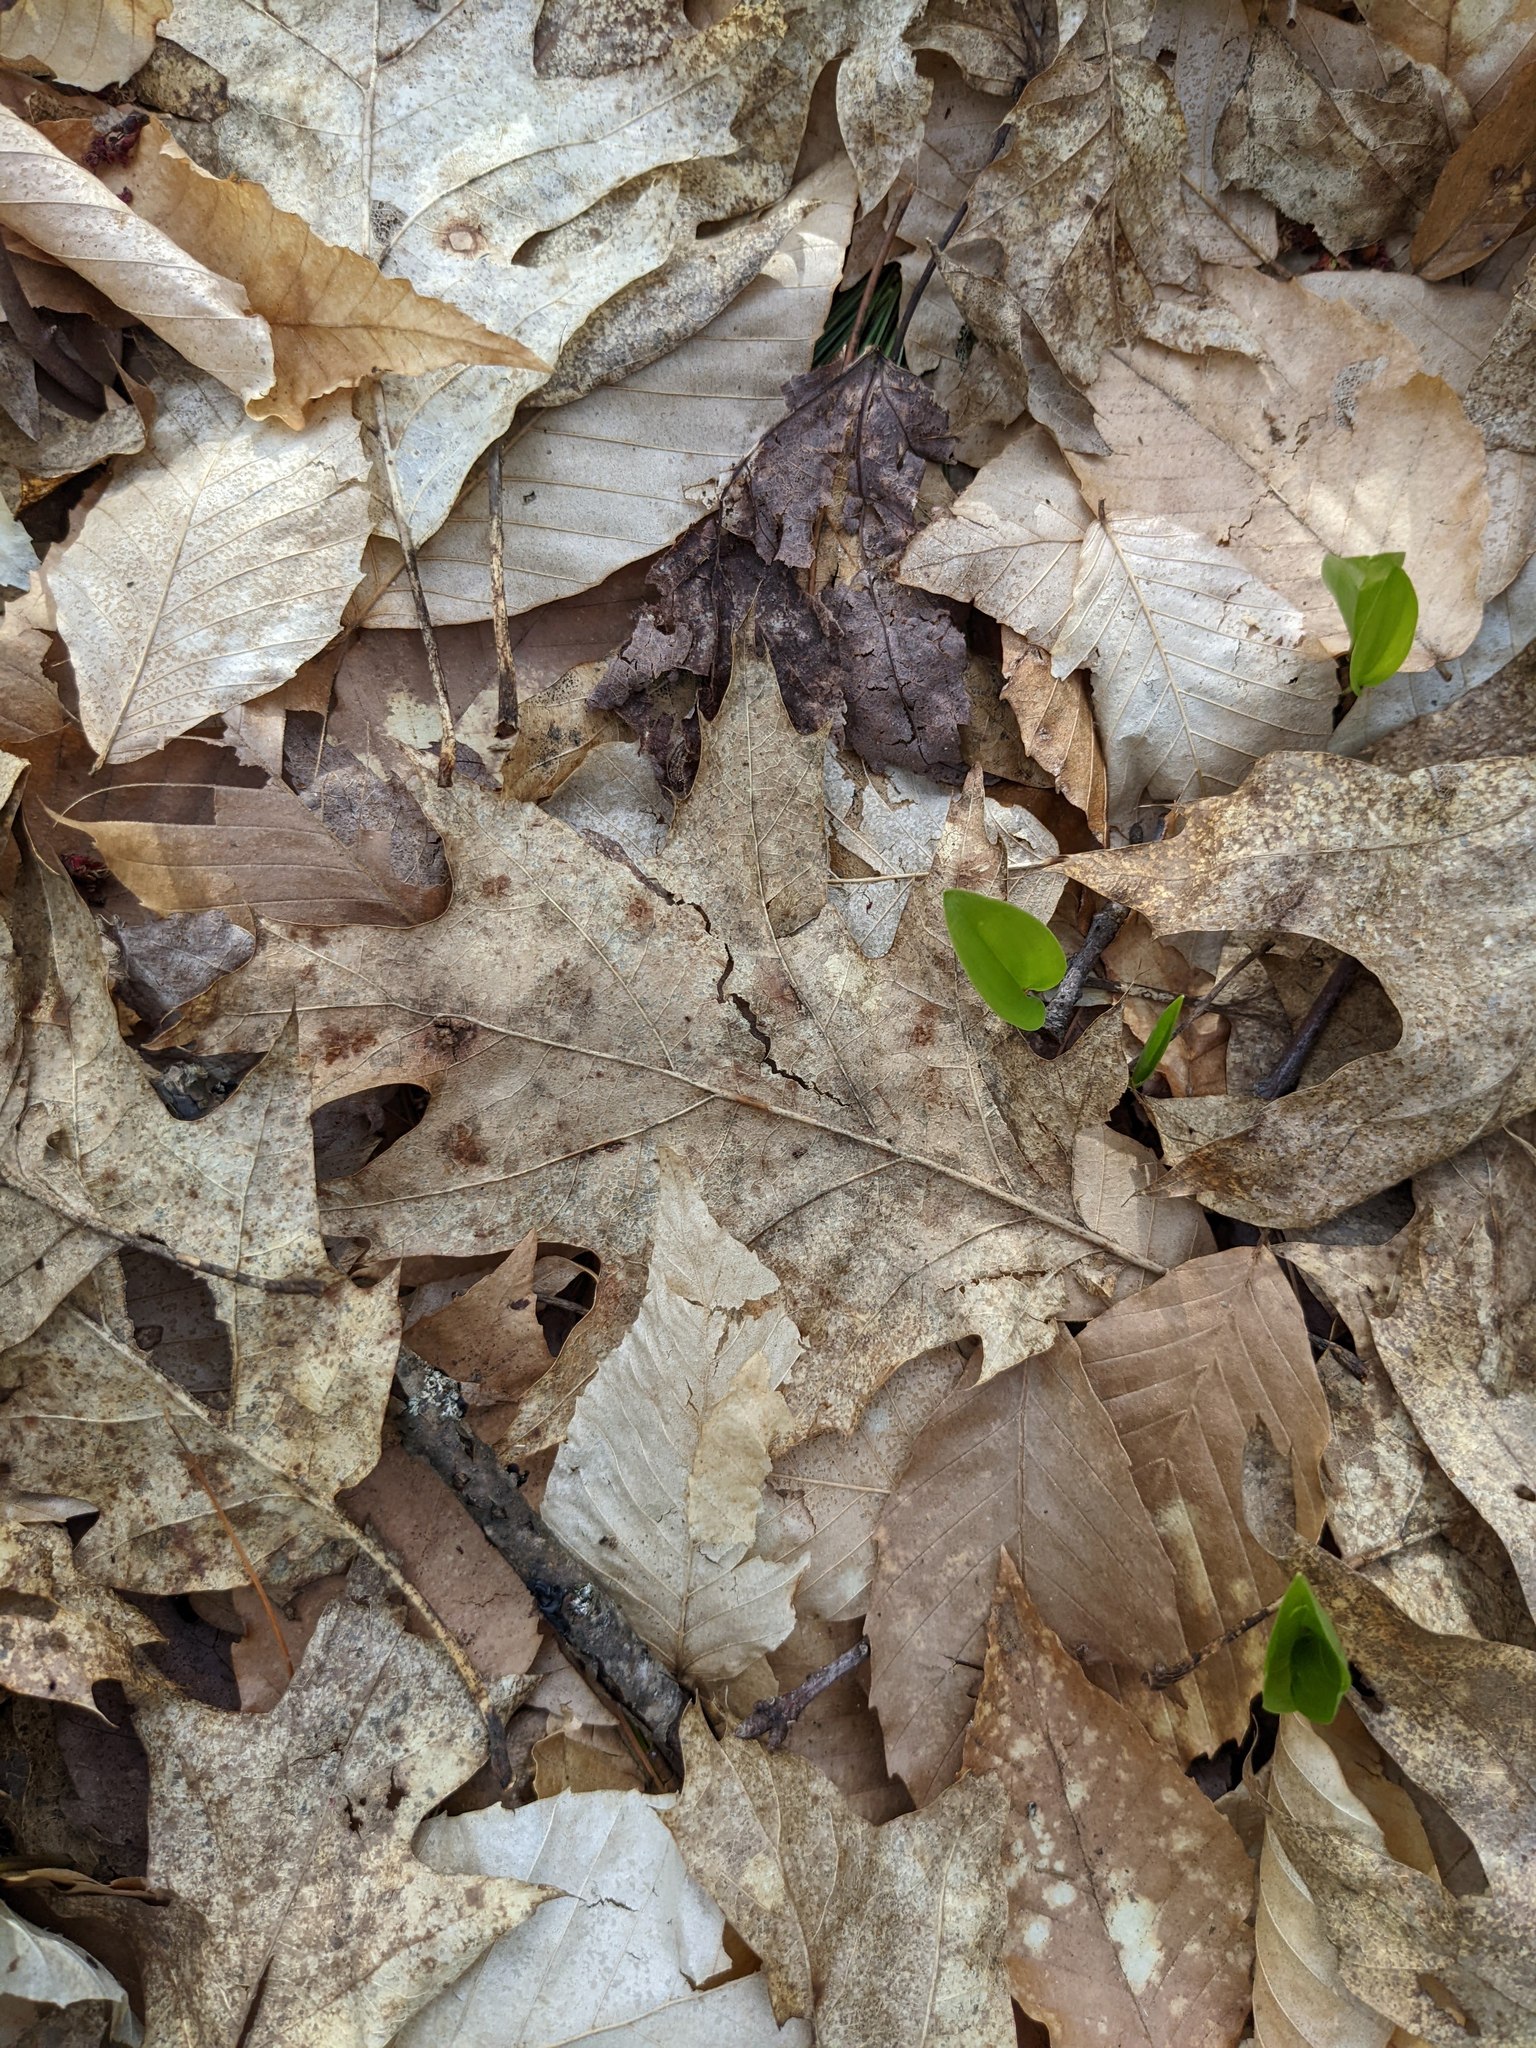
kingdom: Plantae
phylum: Tracheophyta
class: Liliopsida
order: Asparagales
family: Asparagaceae
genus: Maianthemum
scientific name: Maianthemum canadense
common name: False lily-of-the-valley
